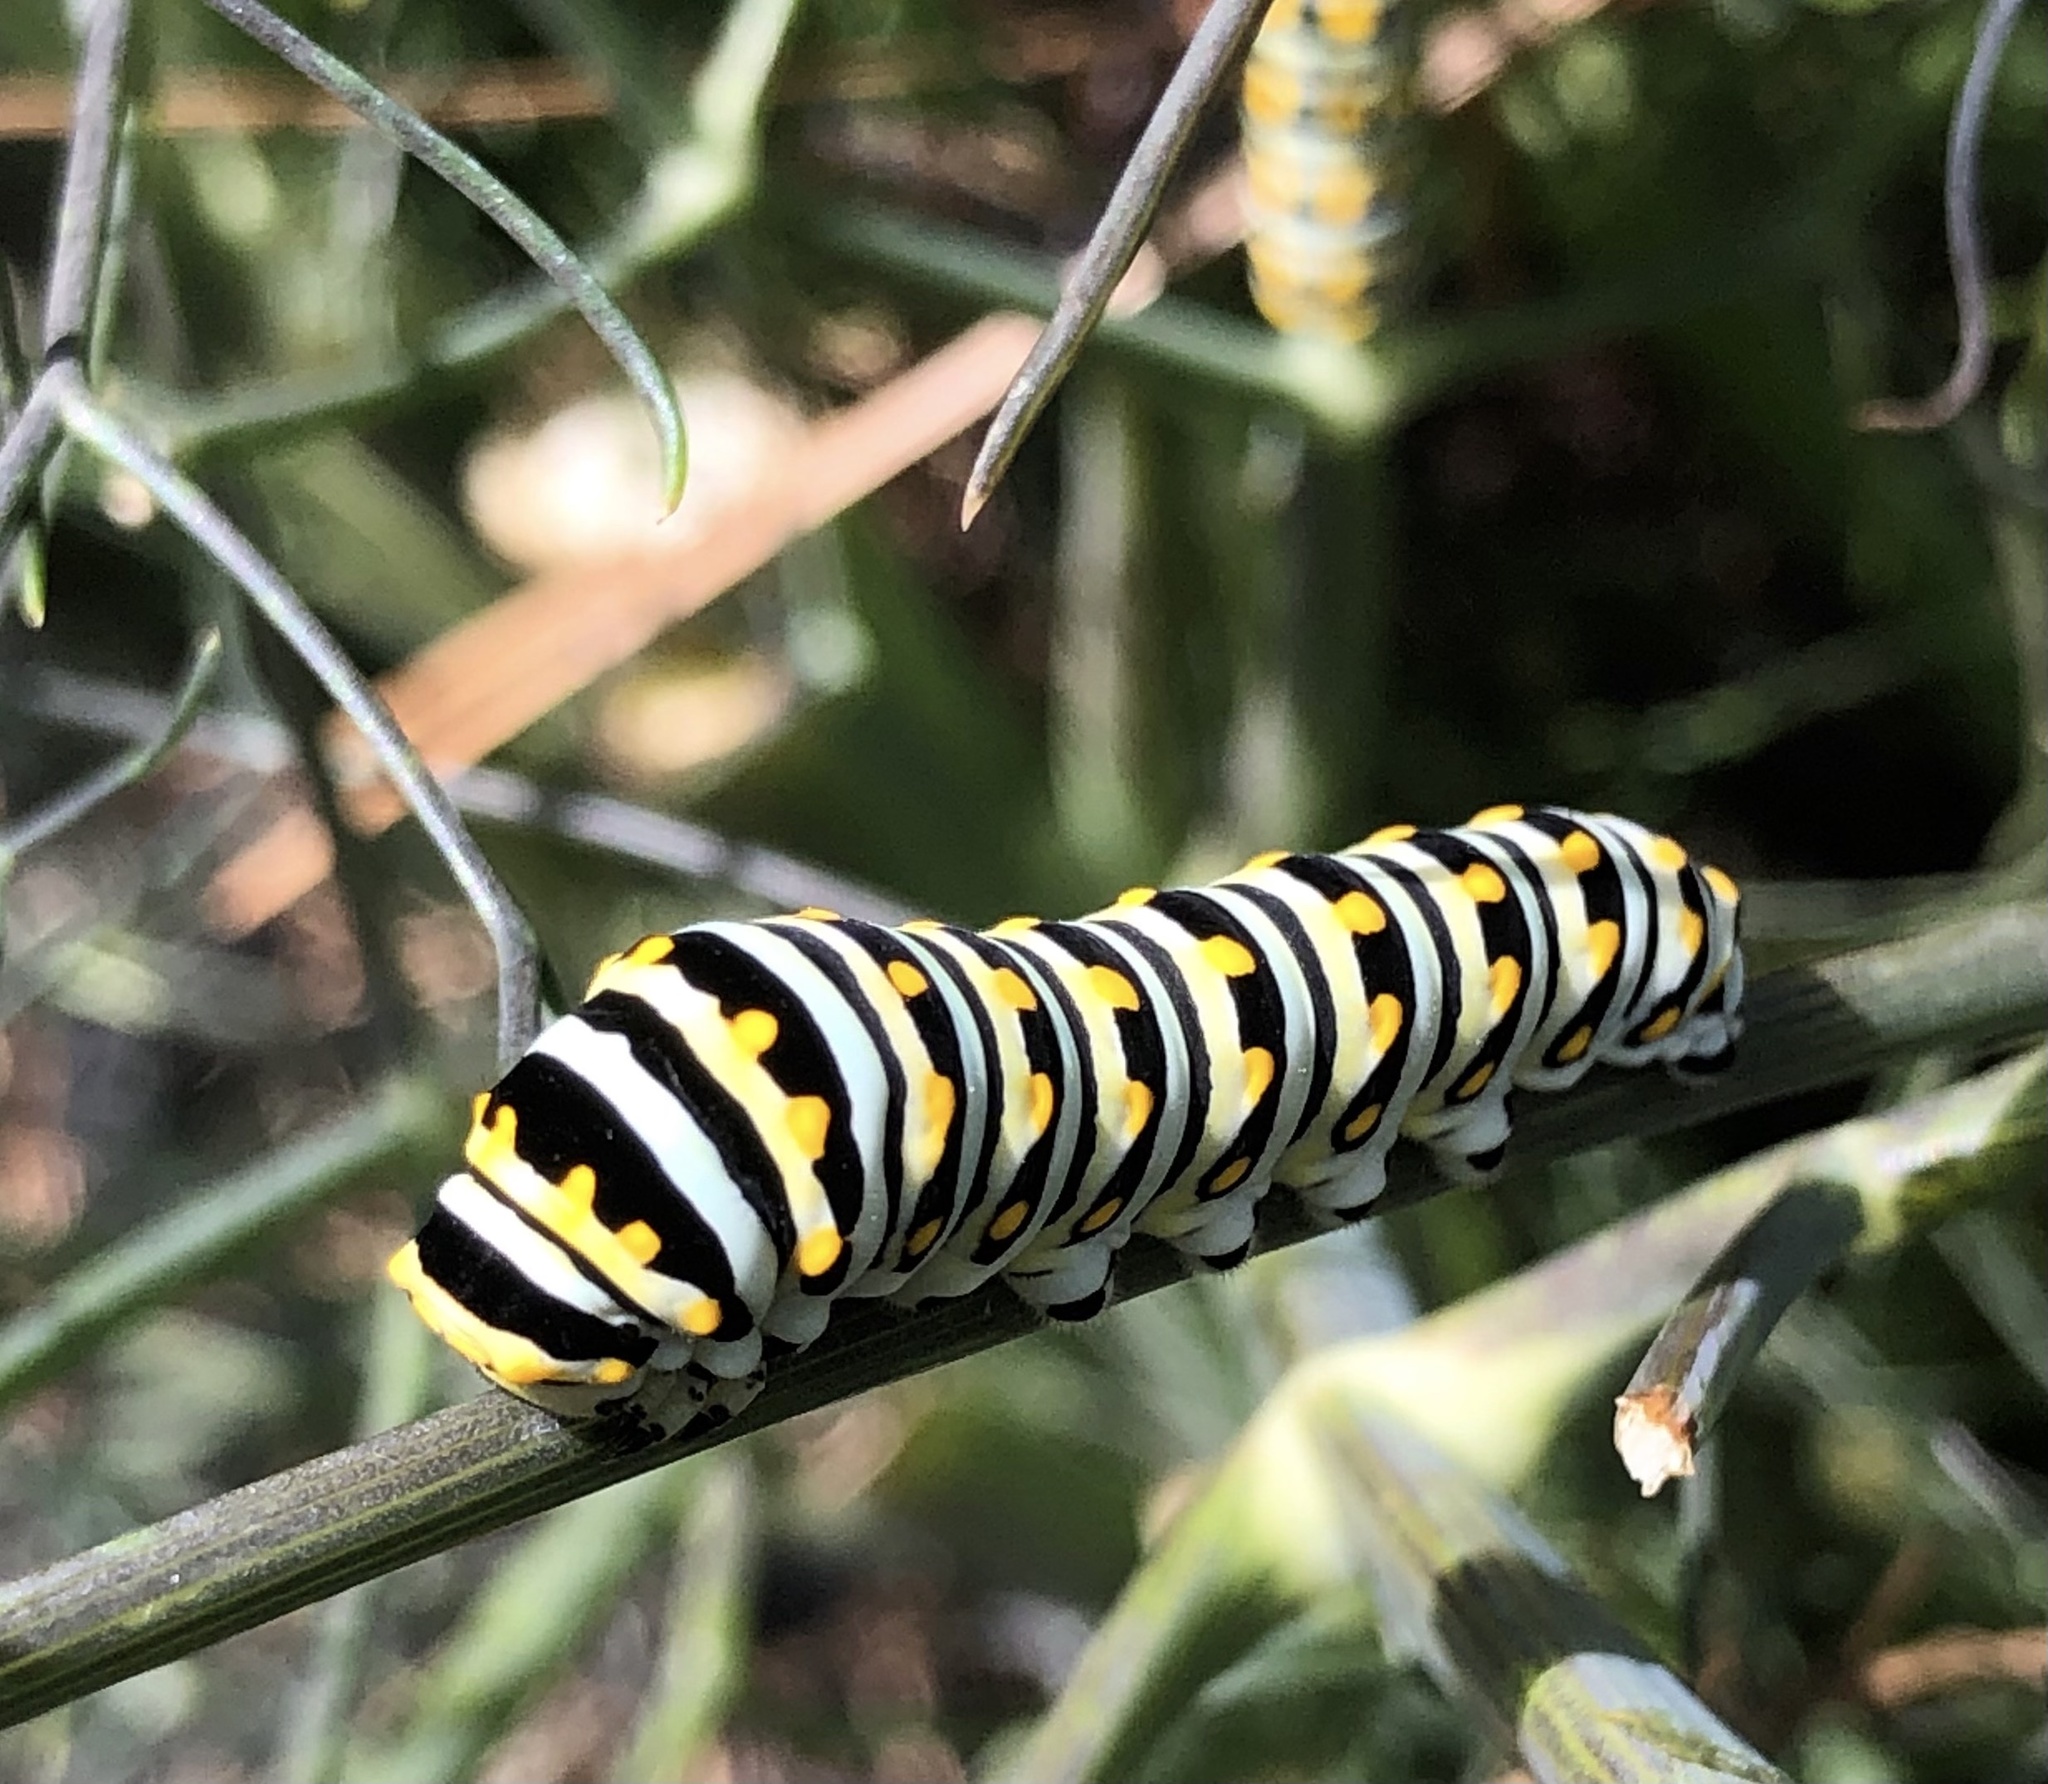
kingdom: Animalia
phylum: Arthropoda
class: Insecta
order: Lepidoptera
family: Papilionidae
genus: Papilio
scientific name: Papilio polyxenes
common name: Black swallowtail
